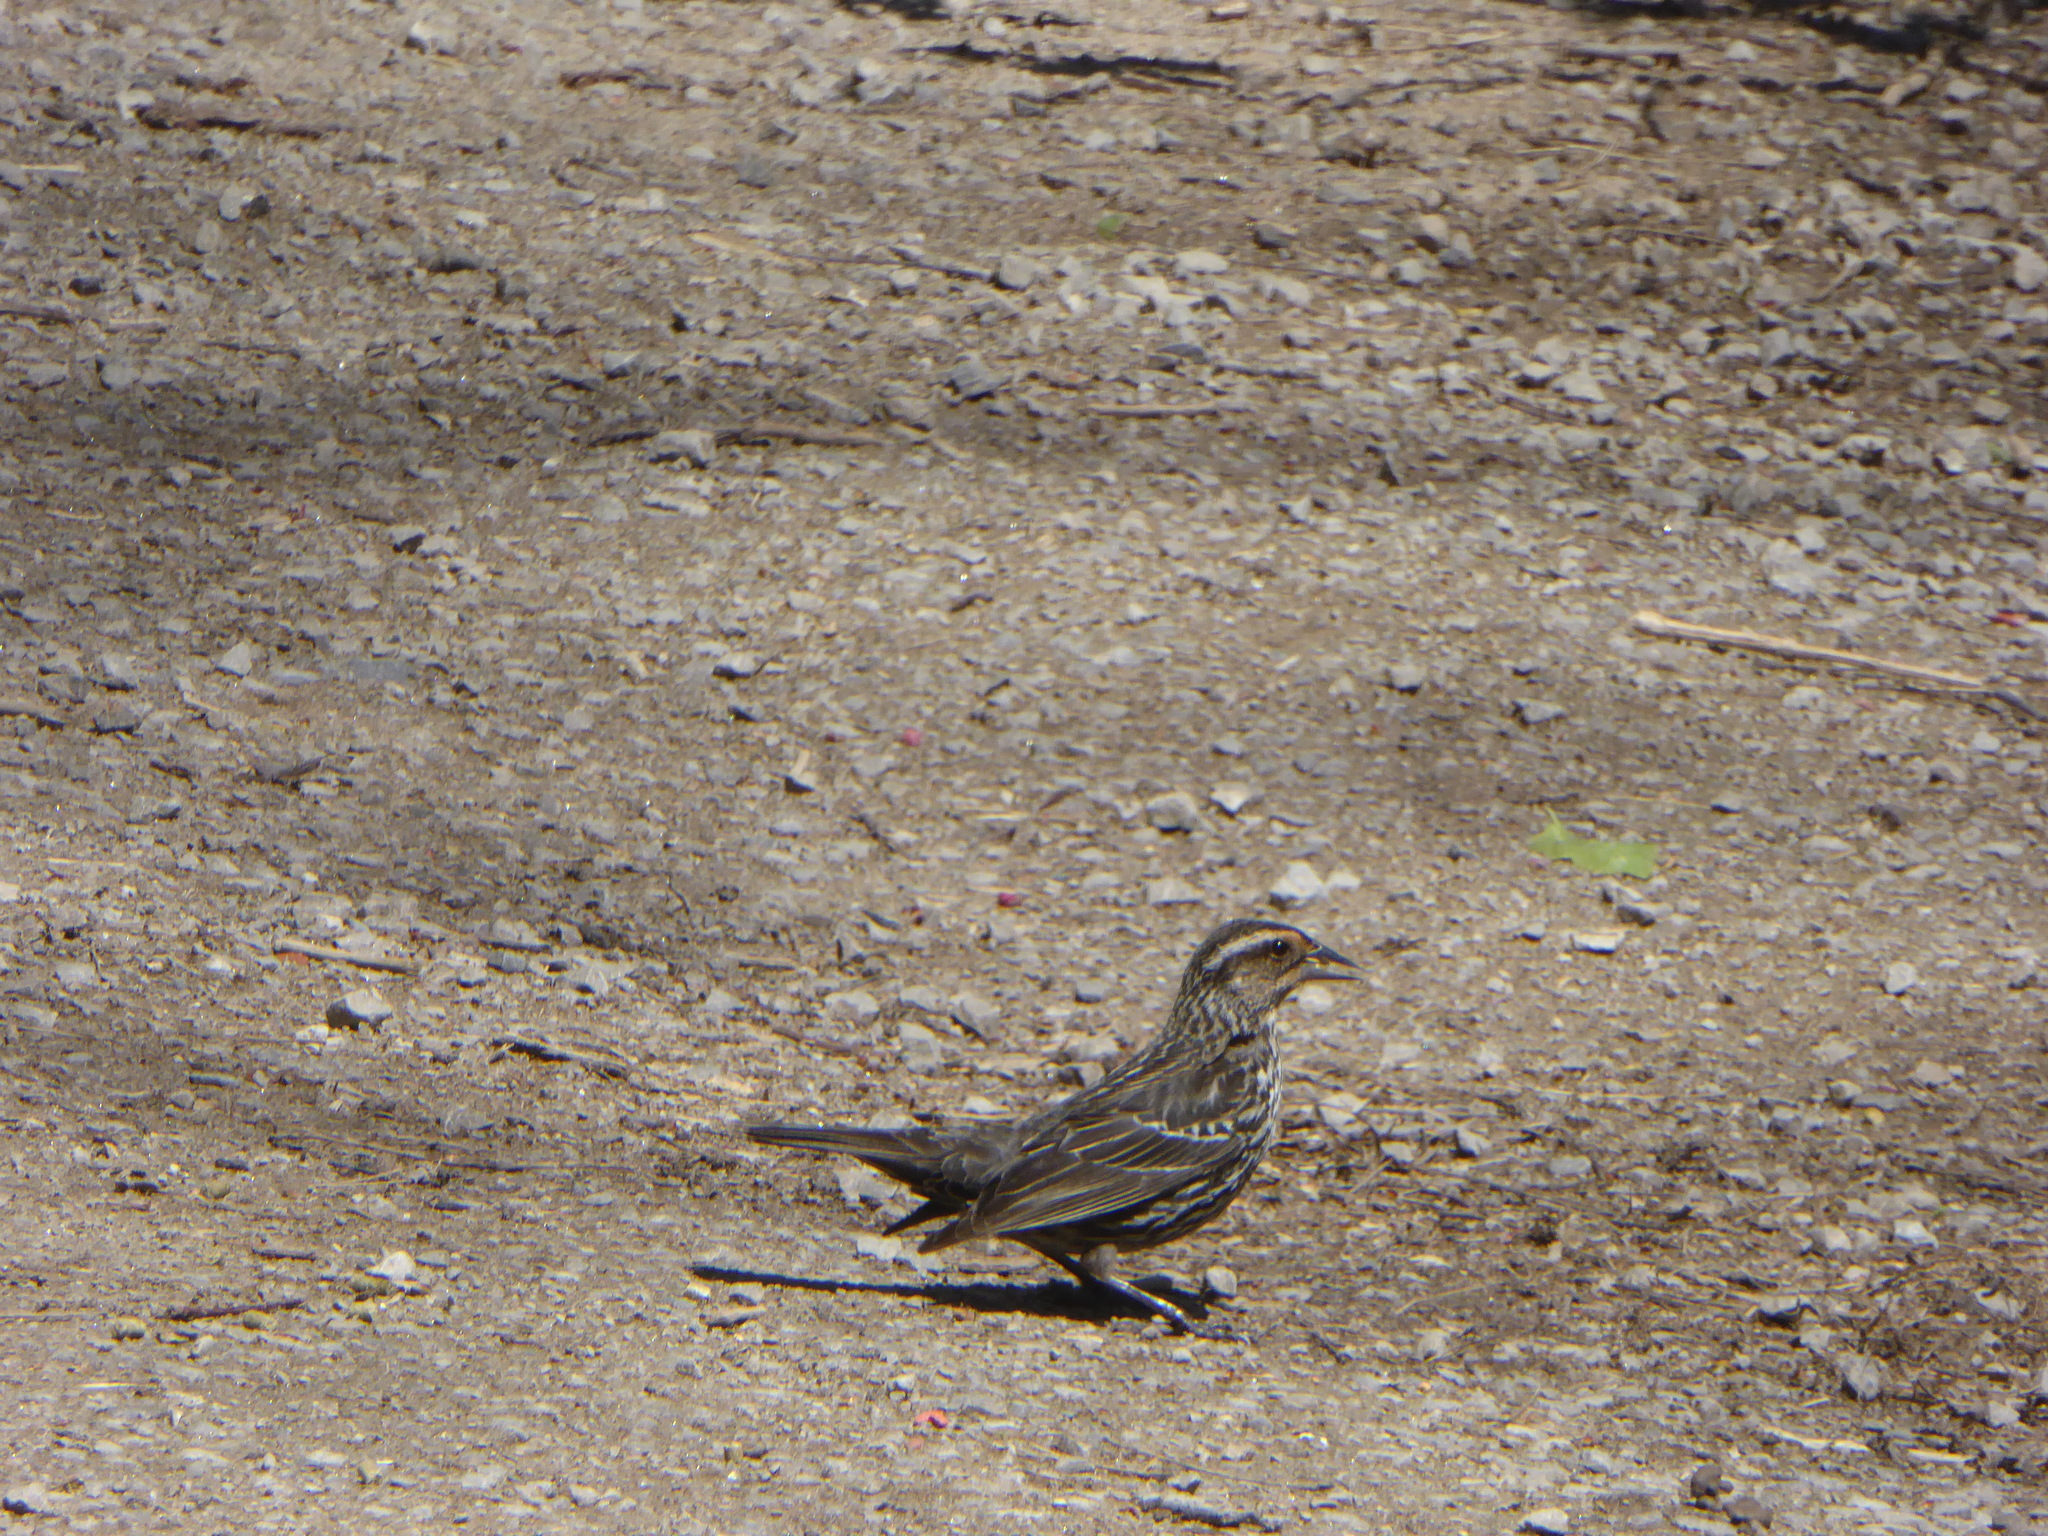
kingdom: Animalia
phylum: Chordata
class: Aves
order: Passeriformes
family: Icteridae
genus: Agelaius
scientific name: Agelaius phoeniceus
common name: Red-winged blackbird
